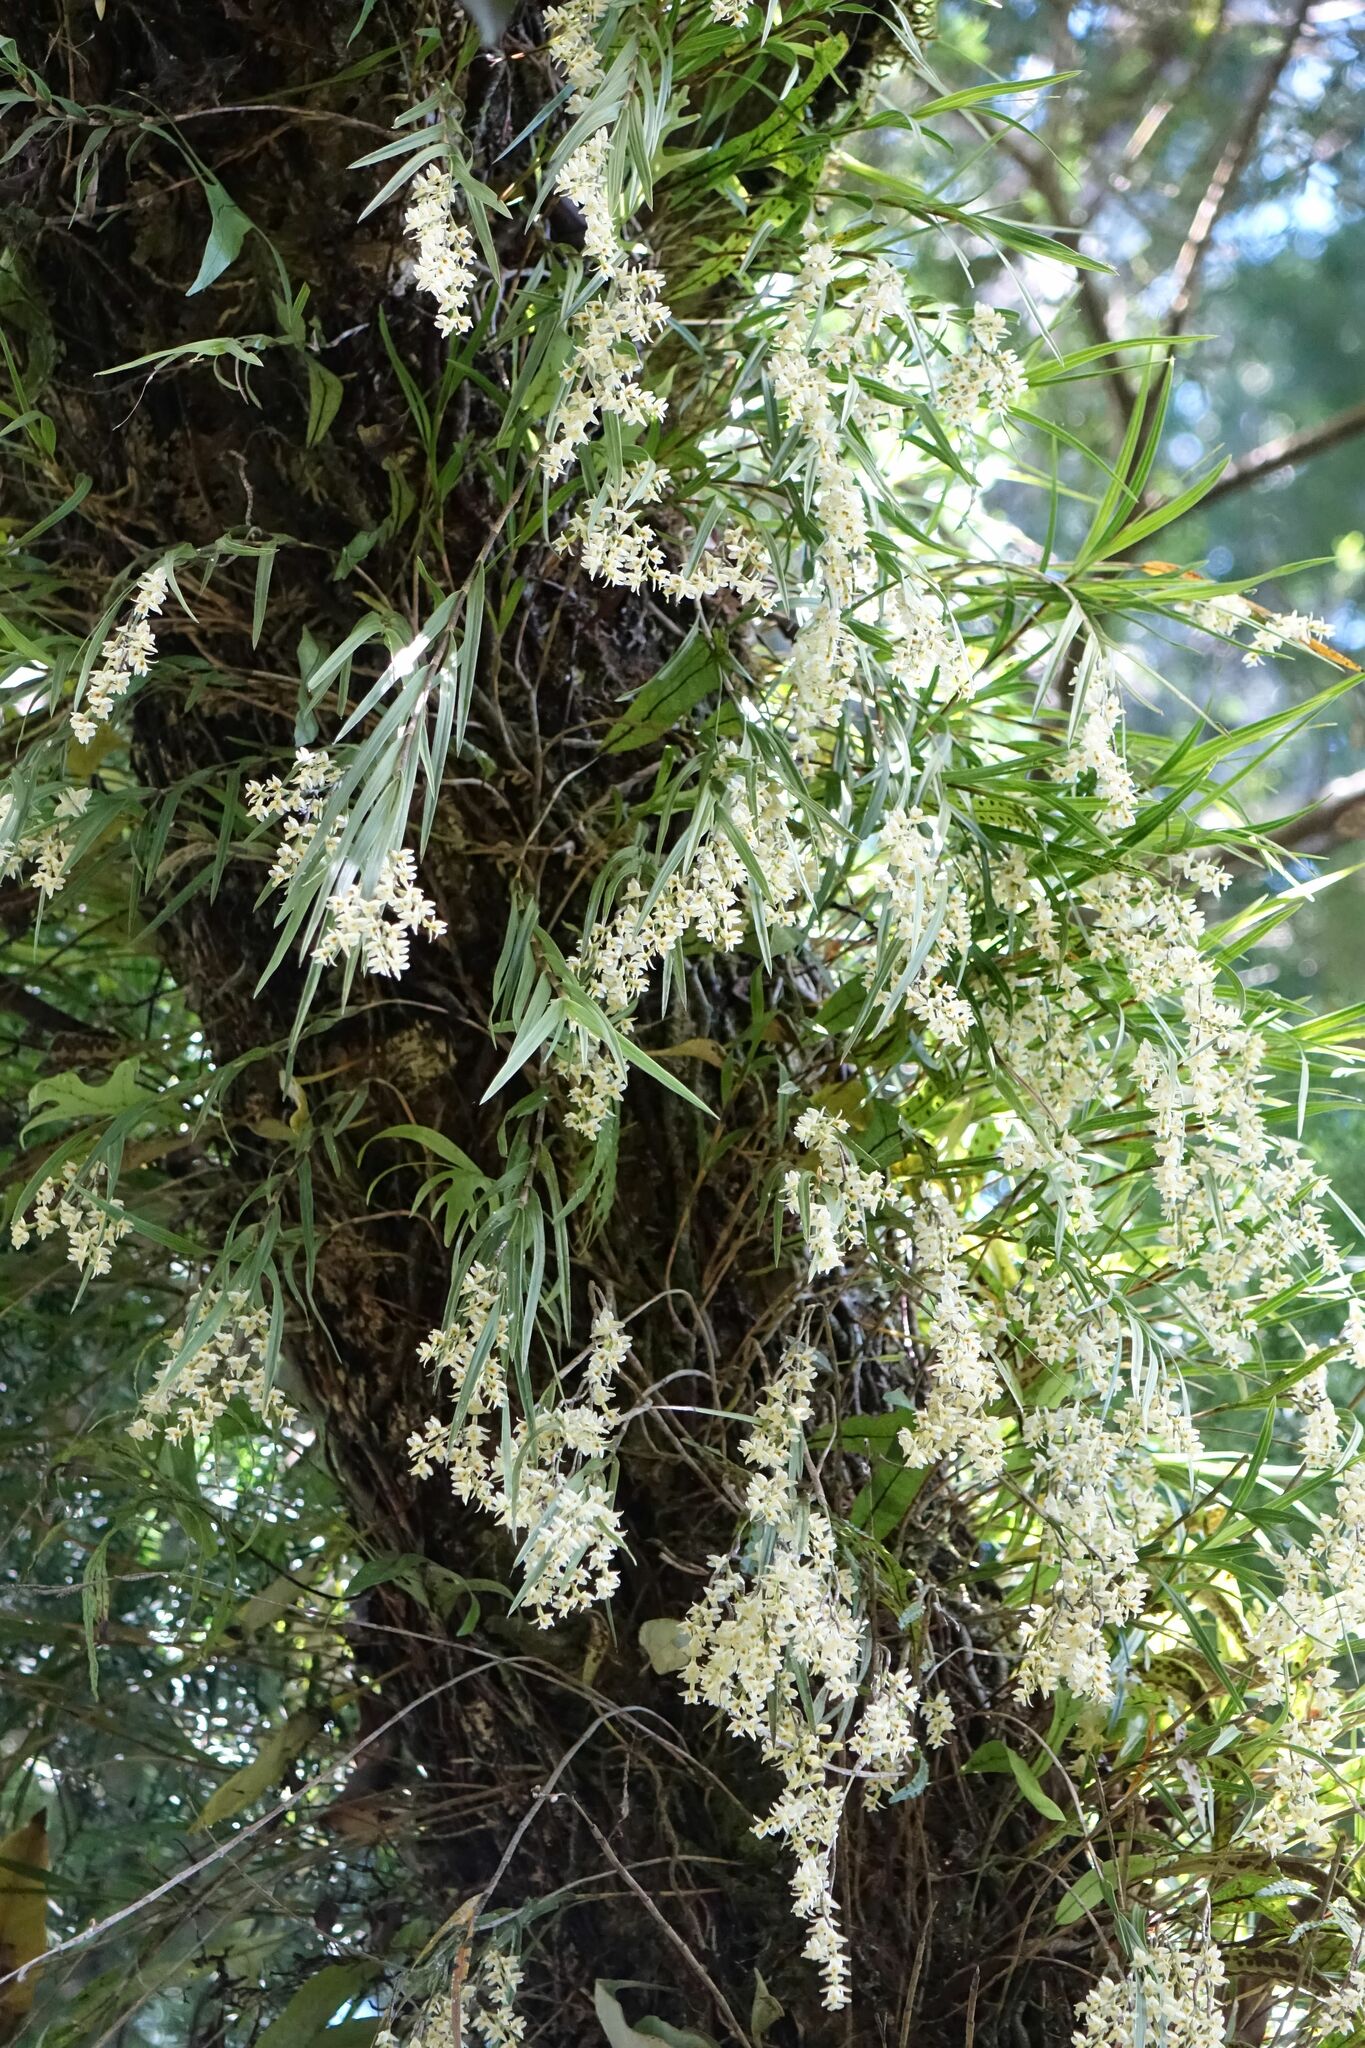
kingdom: Plantae
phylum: Tracheophyta
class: Liliopsida
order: Asparagales
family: Orchidaceae
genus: Earina
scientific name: Earina mucronata
